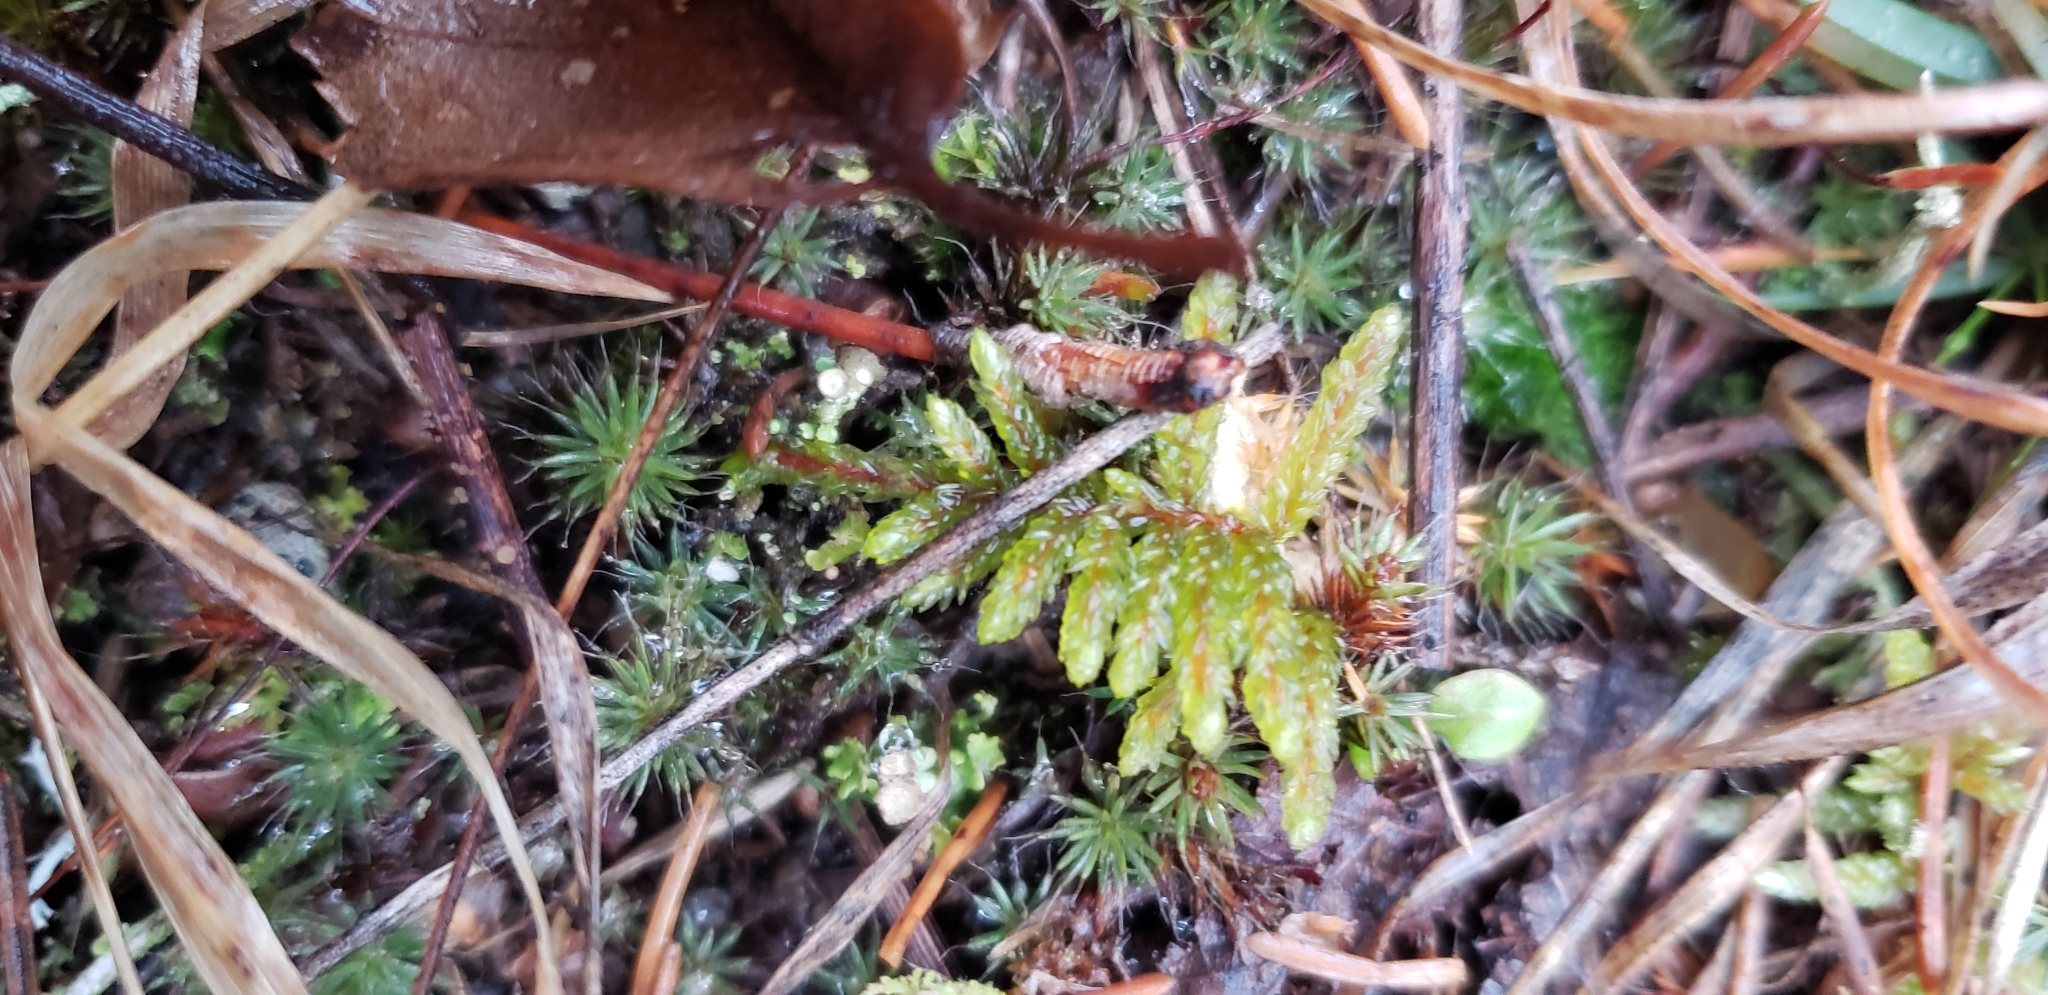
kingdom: Plantae
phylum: Bryophyta
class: Bryopsida
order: Hypnales
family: Hylocomiaceae
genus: Pleurozium
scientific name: Pleurozium schreberi
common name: Red-stemmed feather moss
